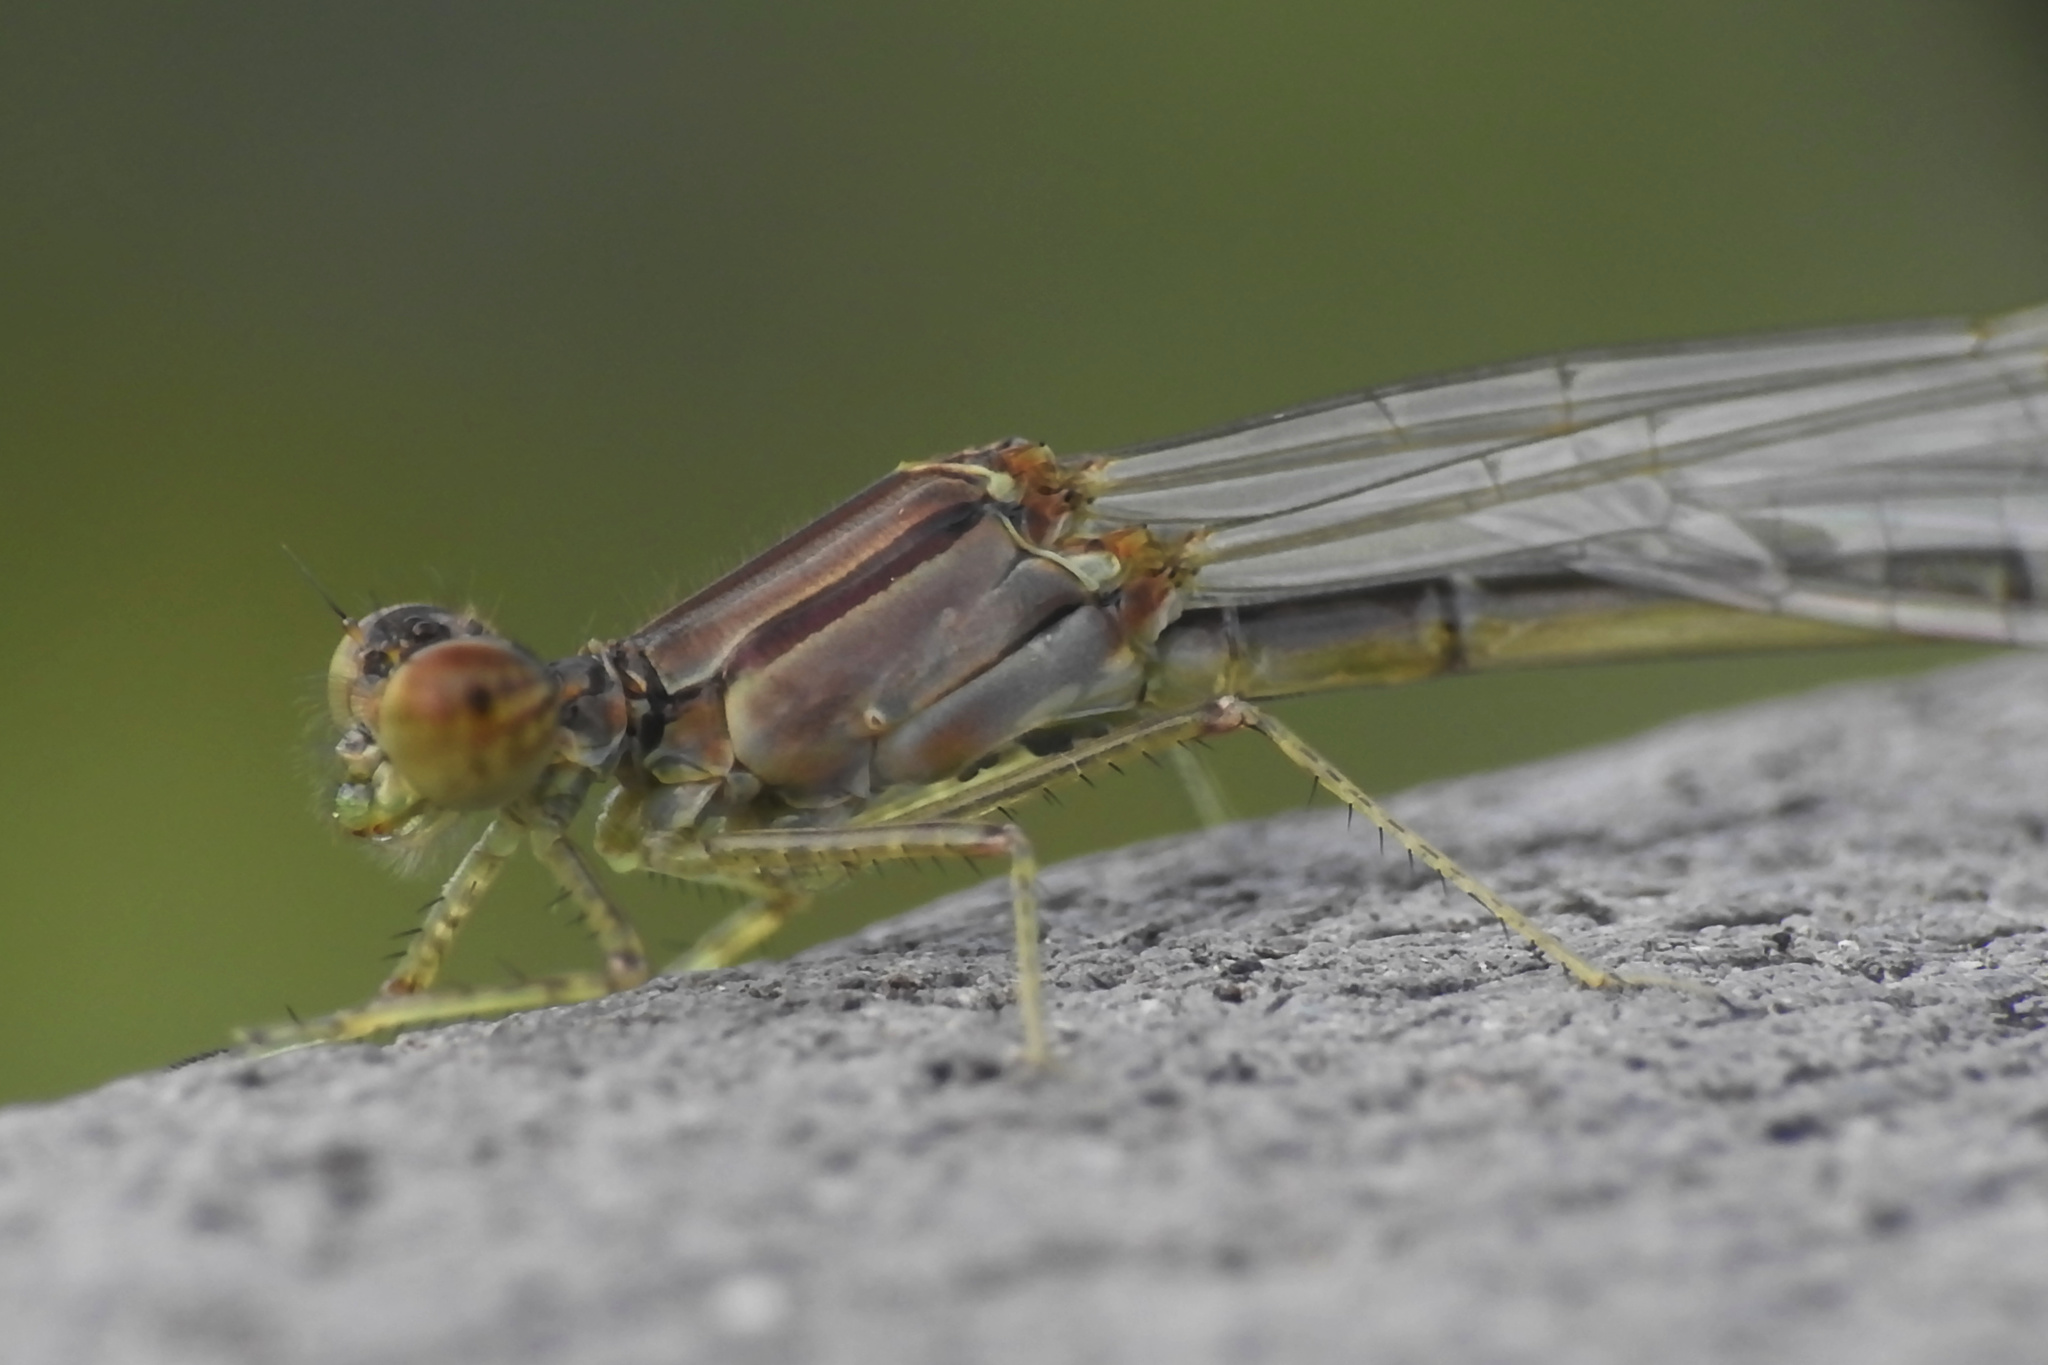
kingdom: Animalia
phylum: Arthropoda
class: Insecta
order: Odonata
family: Coenagrionidae
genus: Enallagma
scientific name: Enallagma signatum
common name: Orange bluet
